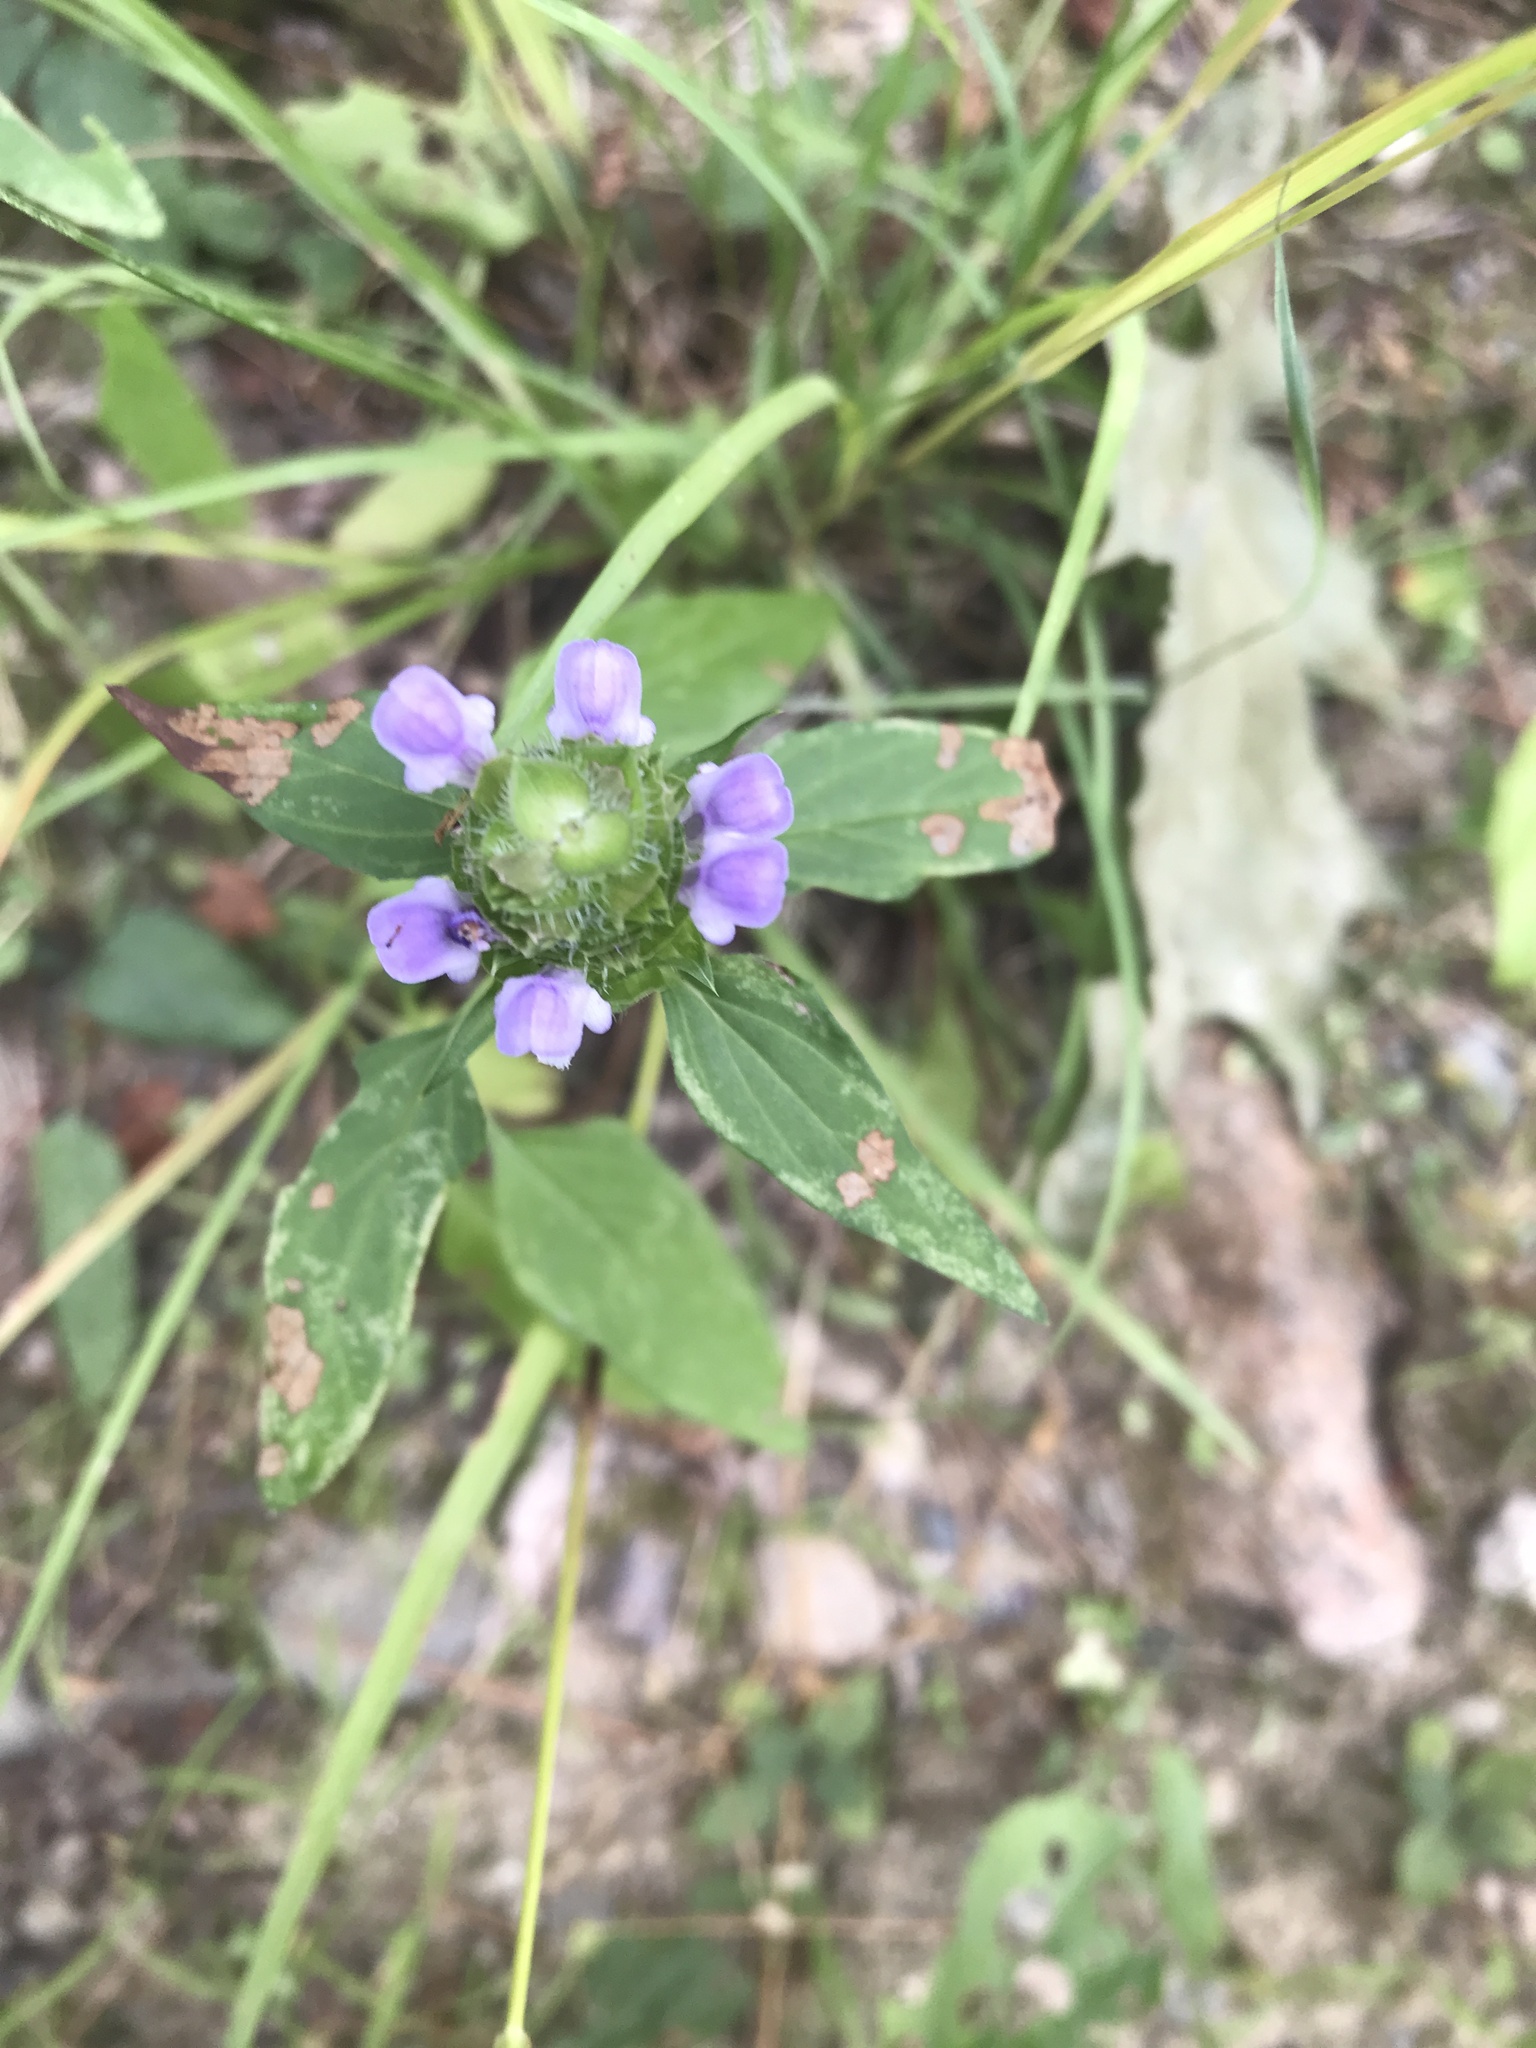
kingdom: Plantae
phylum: Tracheophyta
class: Magnoliopsida
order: Lamiales
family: Lamiaceae
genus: Prunella
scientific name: Prunella vulgaris
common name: Heal-all
